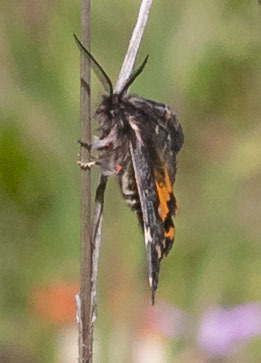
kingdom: Animalia
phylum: Arthropoda
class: Insecta
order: Lepidoptera
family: Erebidae
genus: Leptarctia
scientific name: Leptarctia californiae
